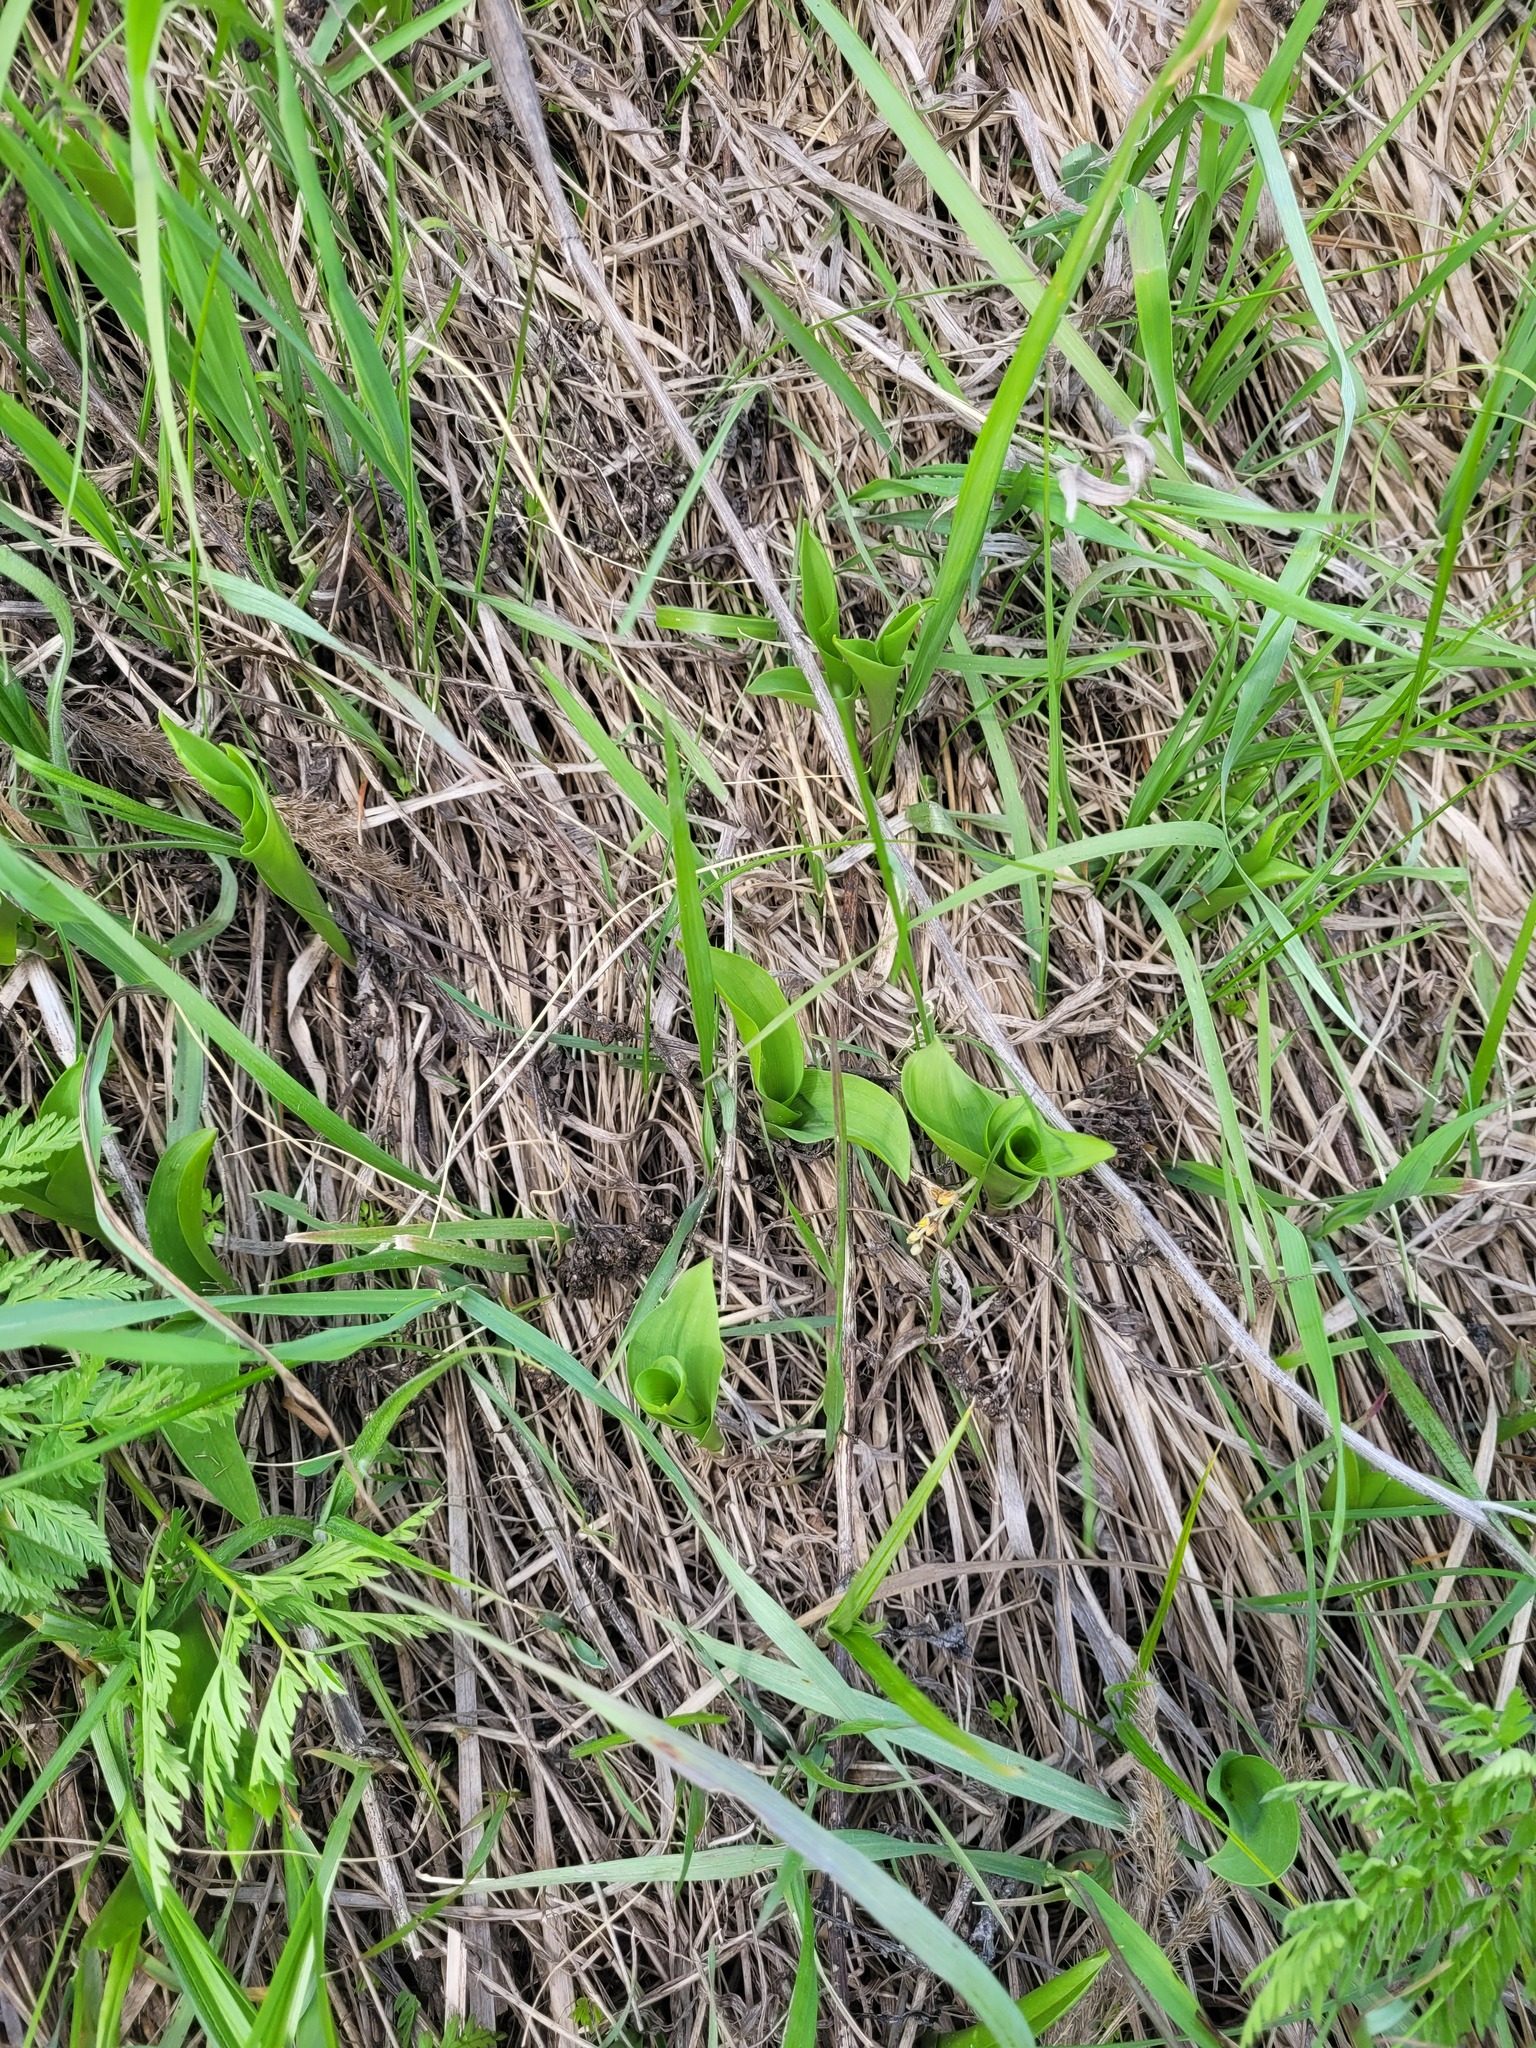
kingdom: Plantae
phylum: Tracheophyta
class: Liliopsida
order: Asparagales
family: Asparagaceae
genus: Convallaria
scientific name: Convallaria majalis
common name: Lily-of-the-valley
